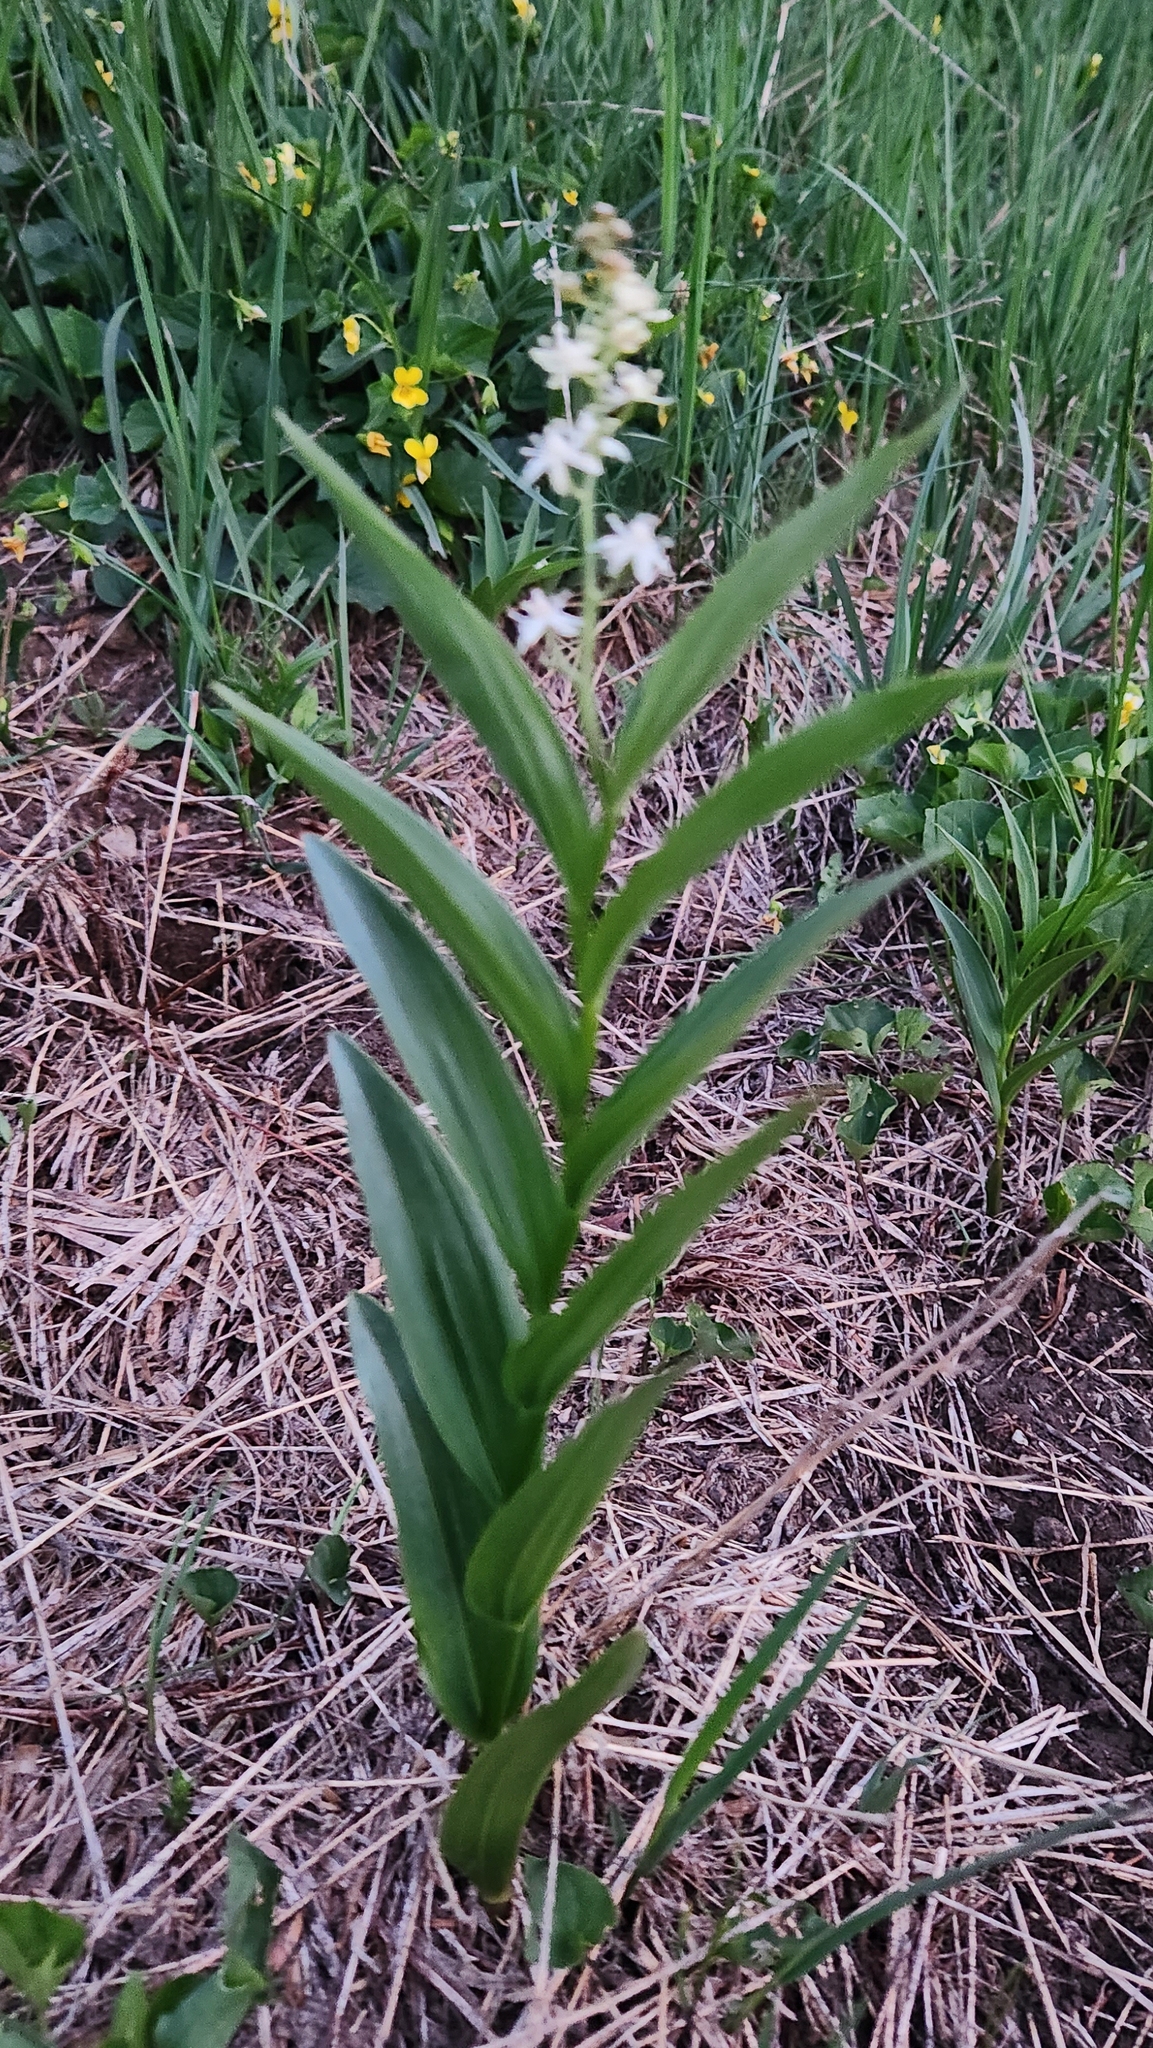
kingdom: Plantae
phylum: Tracheophyta
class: Liliopsida
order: Asparagales
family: Asparagaceae
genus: Maianthemum
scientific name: Maianthemum stellatum
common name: Little false solomon's seal
